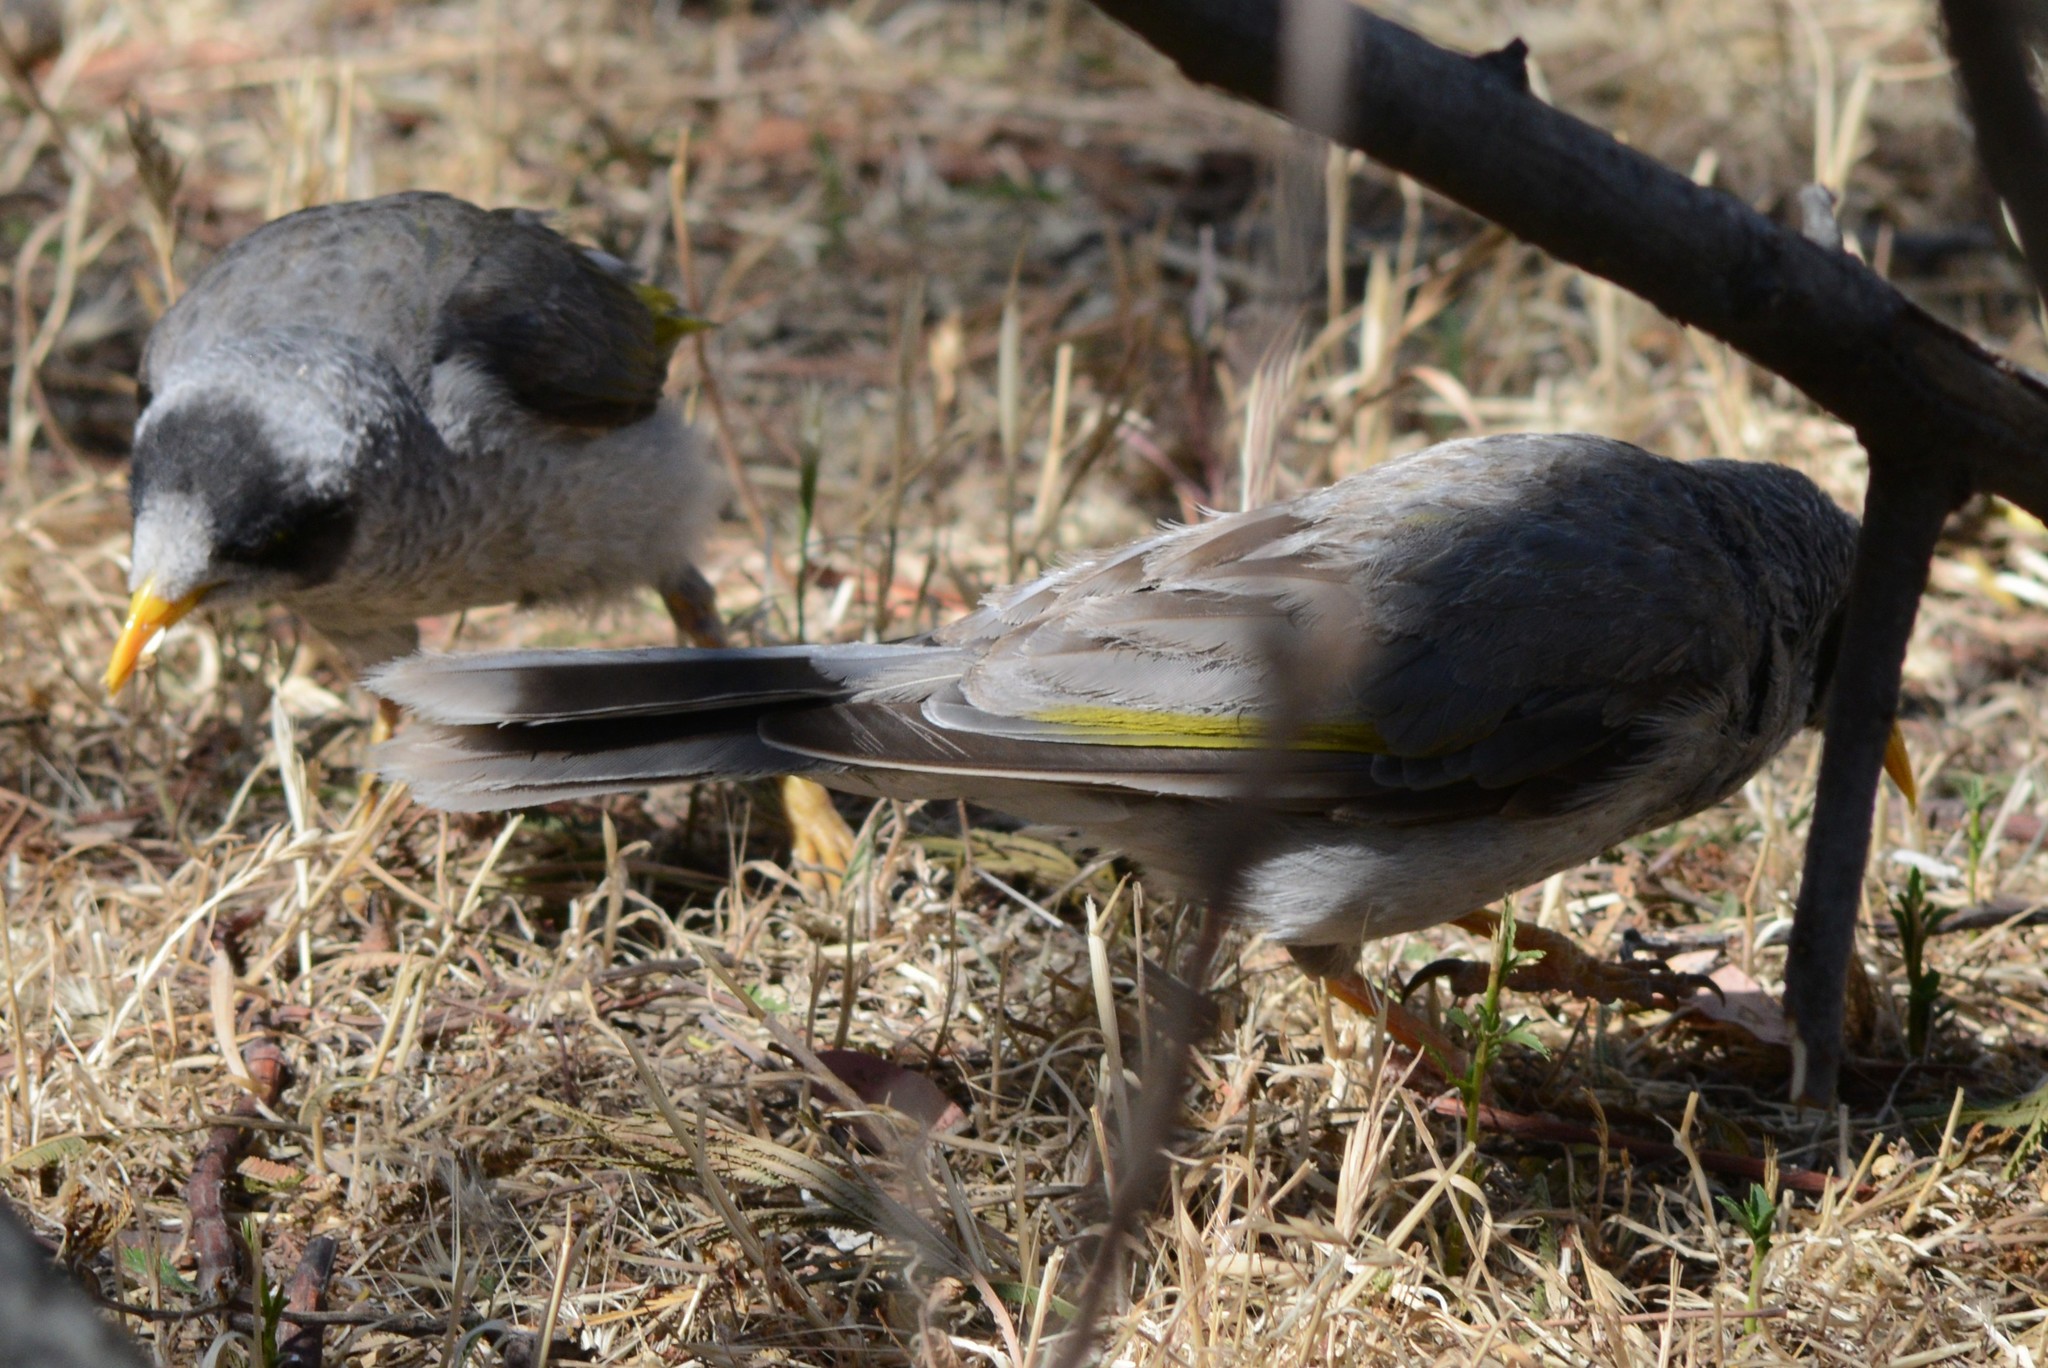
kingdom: Animalia
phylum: Chordata
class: Aves
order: Passeriformes
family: Meliphagidae
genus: Manorina
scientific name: Manorina melanocephala
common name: Noisy miner
